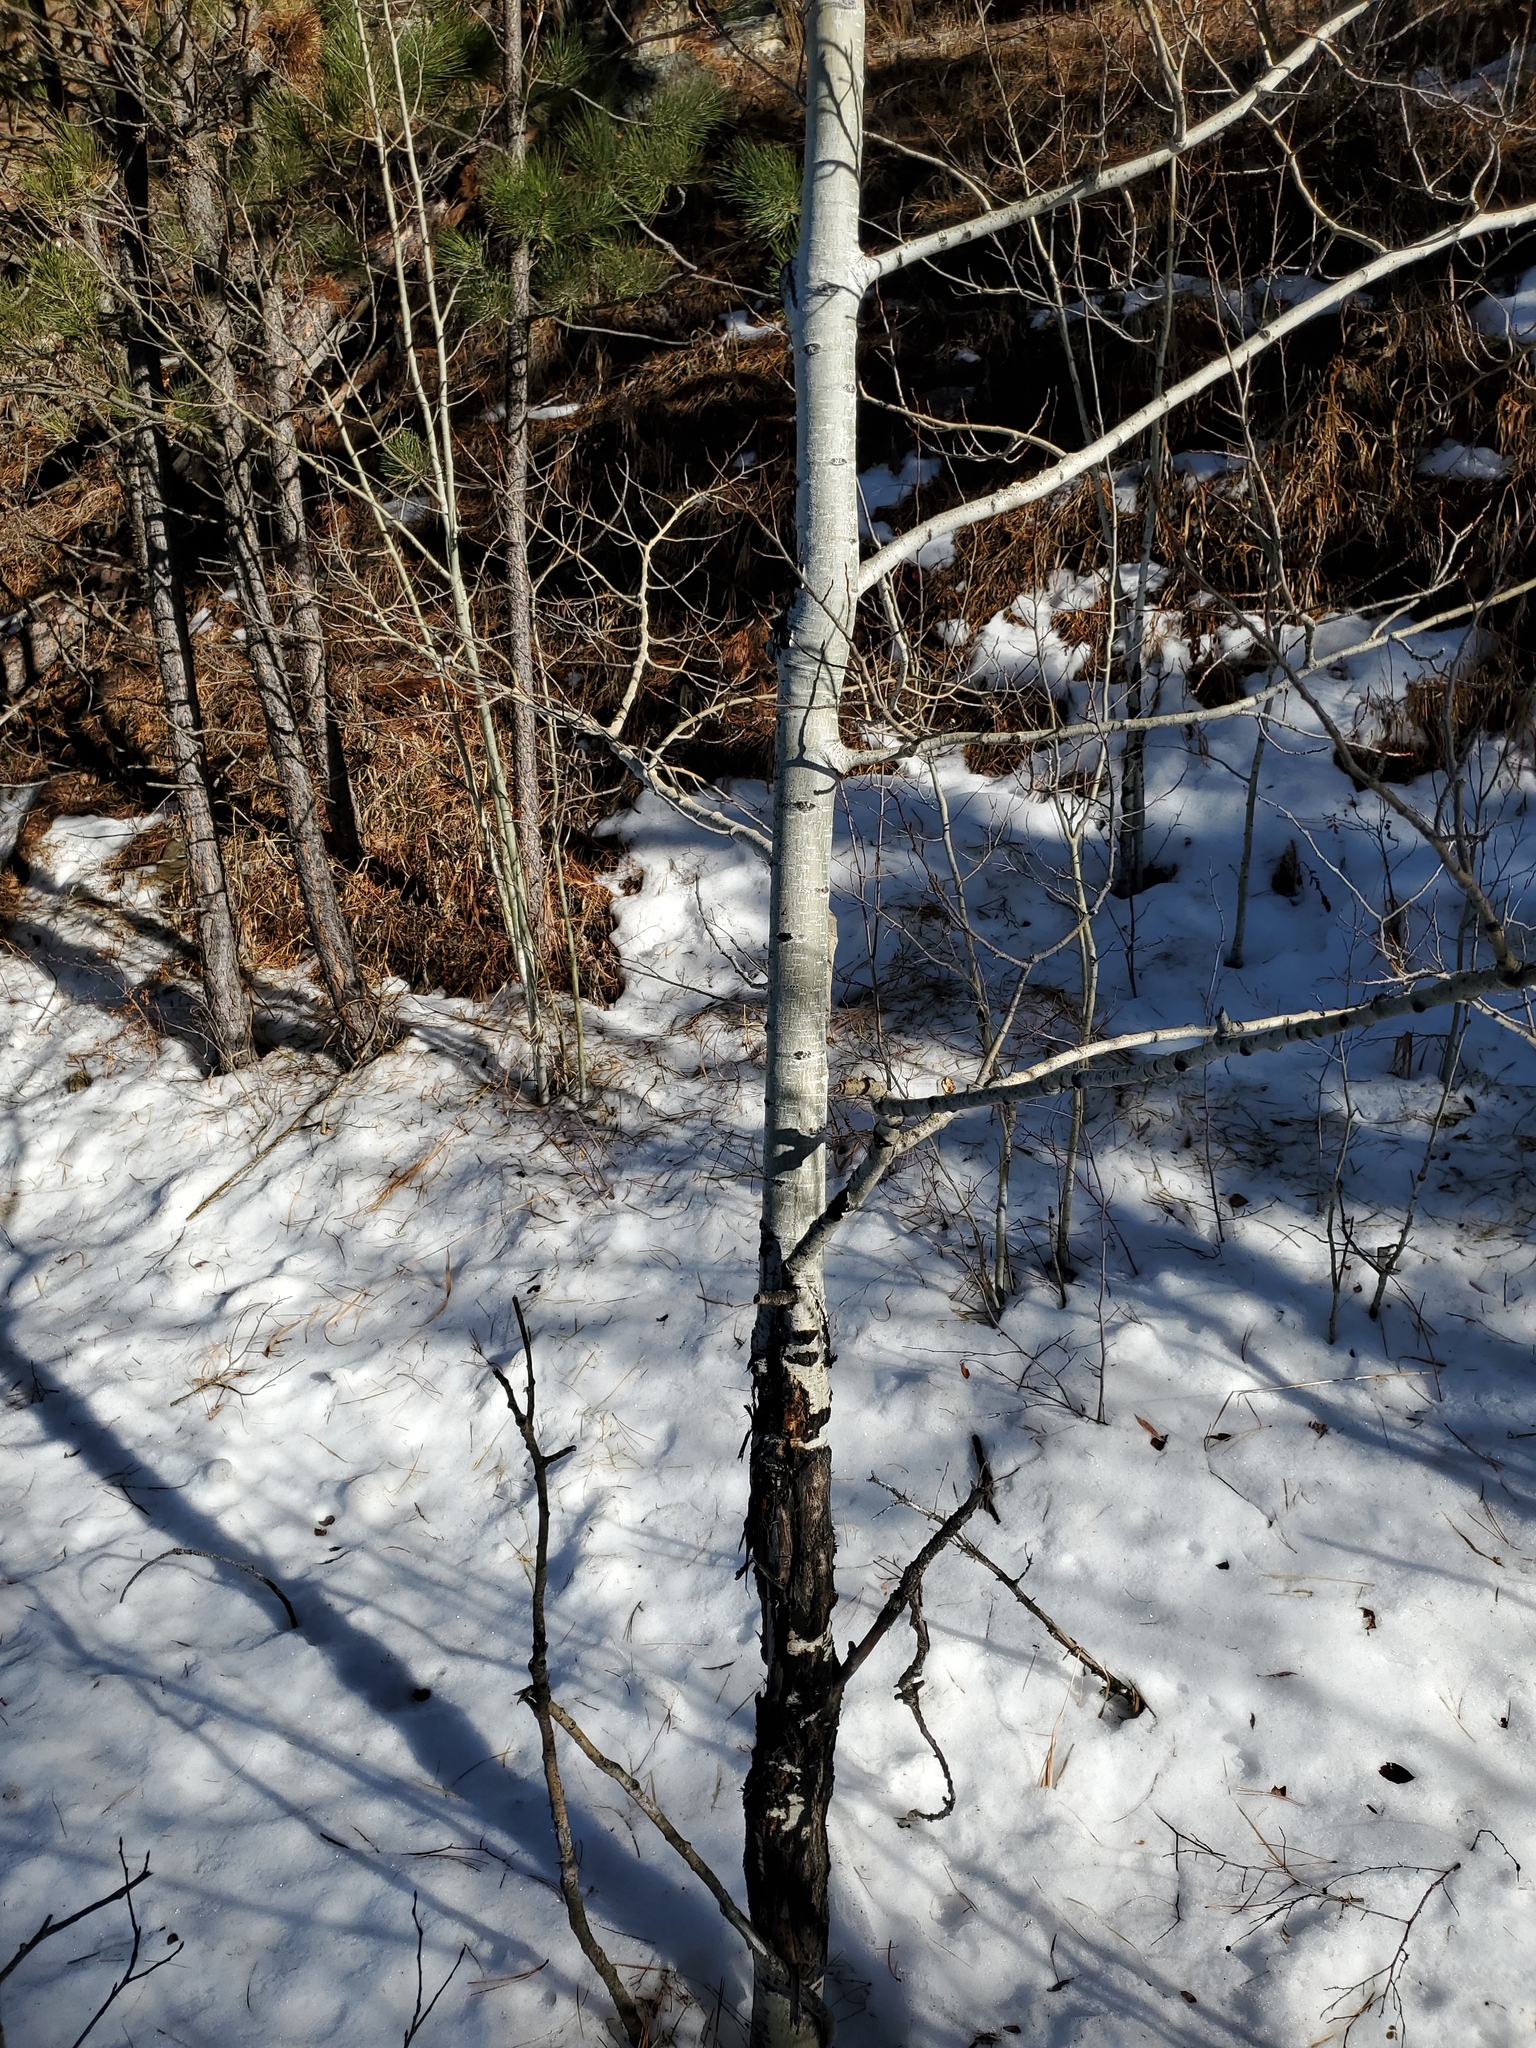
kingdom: Plantae
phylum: Tracheophyta
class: Magnoliopsida
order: Malpighiales
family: Salicaceae
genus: Populus
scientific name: Populus tremuloides
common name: Quaking aspen
